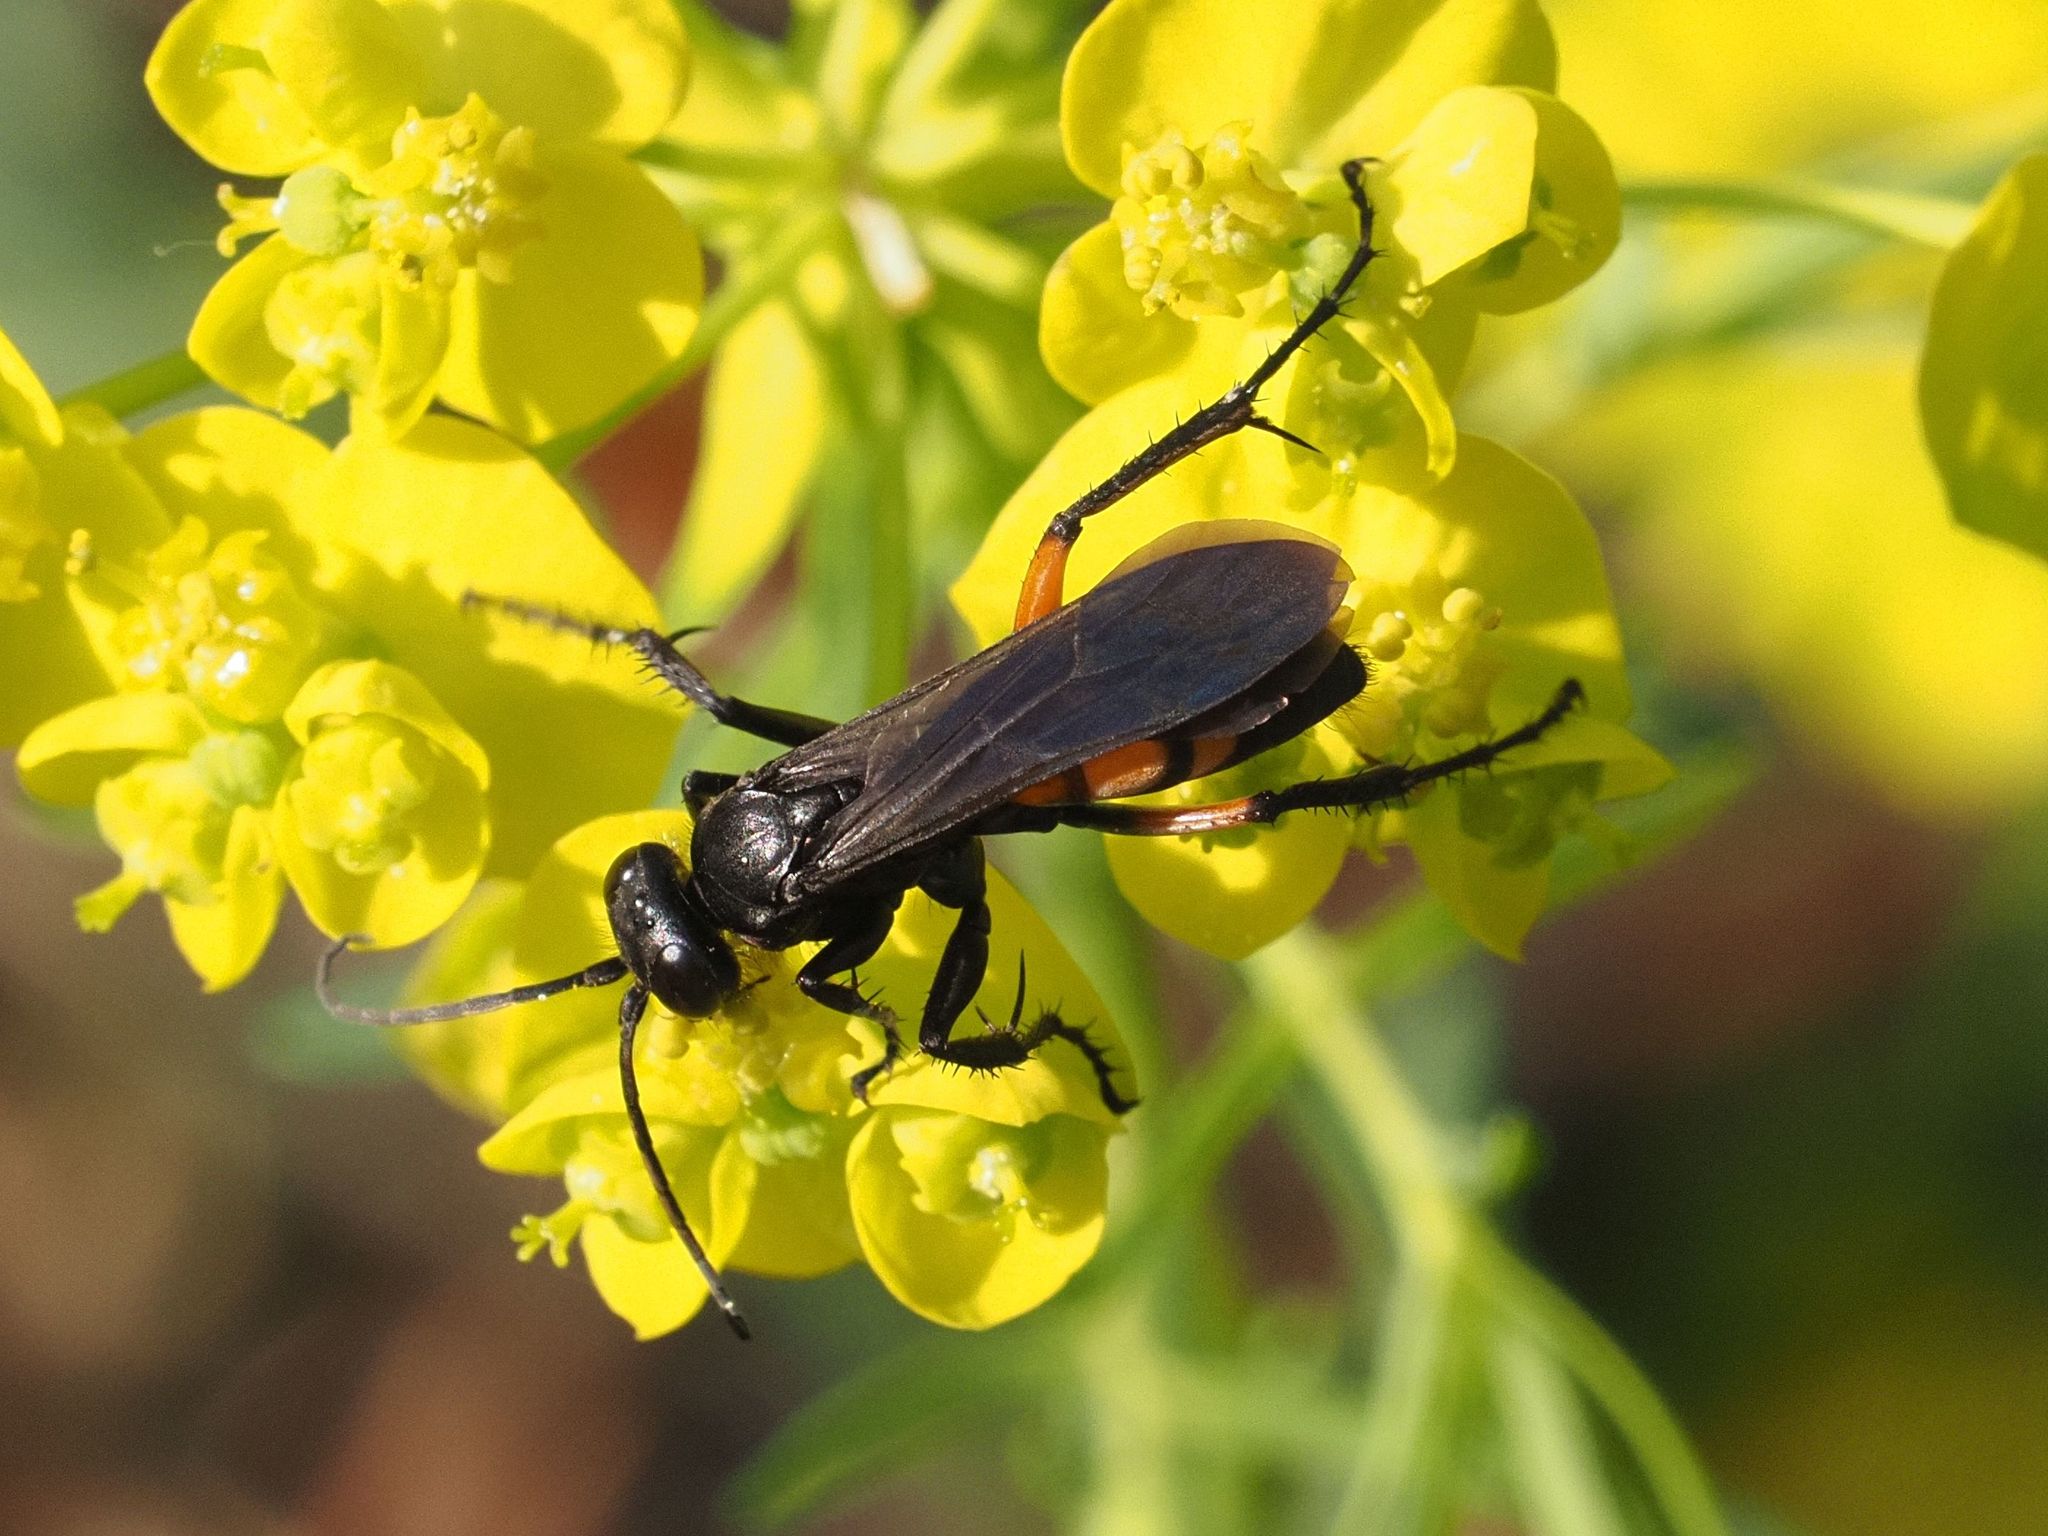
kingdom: Animalia
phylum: Arthropoda
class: Insecta
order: Hymenoptera
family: Pompilidae
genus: Anoplius
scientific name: Anoplius viaticus
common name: Black banded spider wasp
